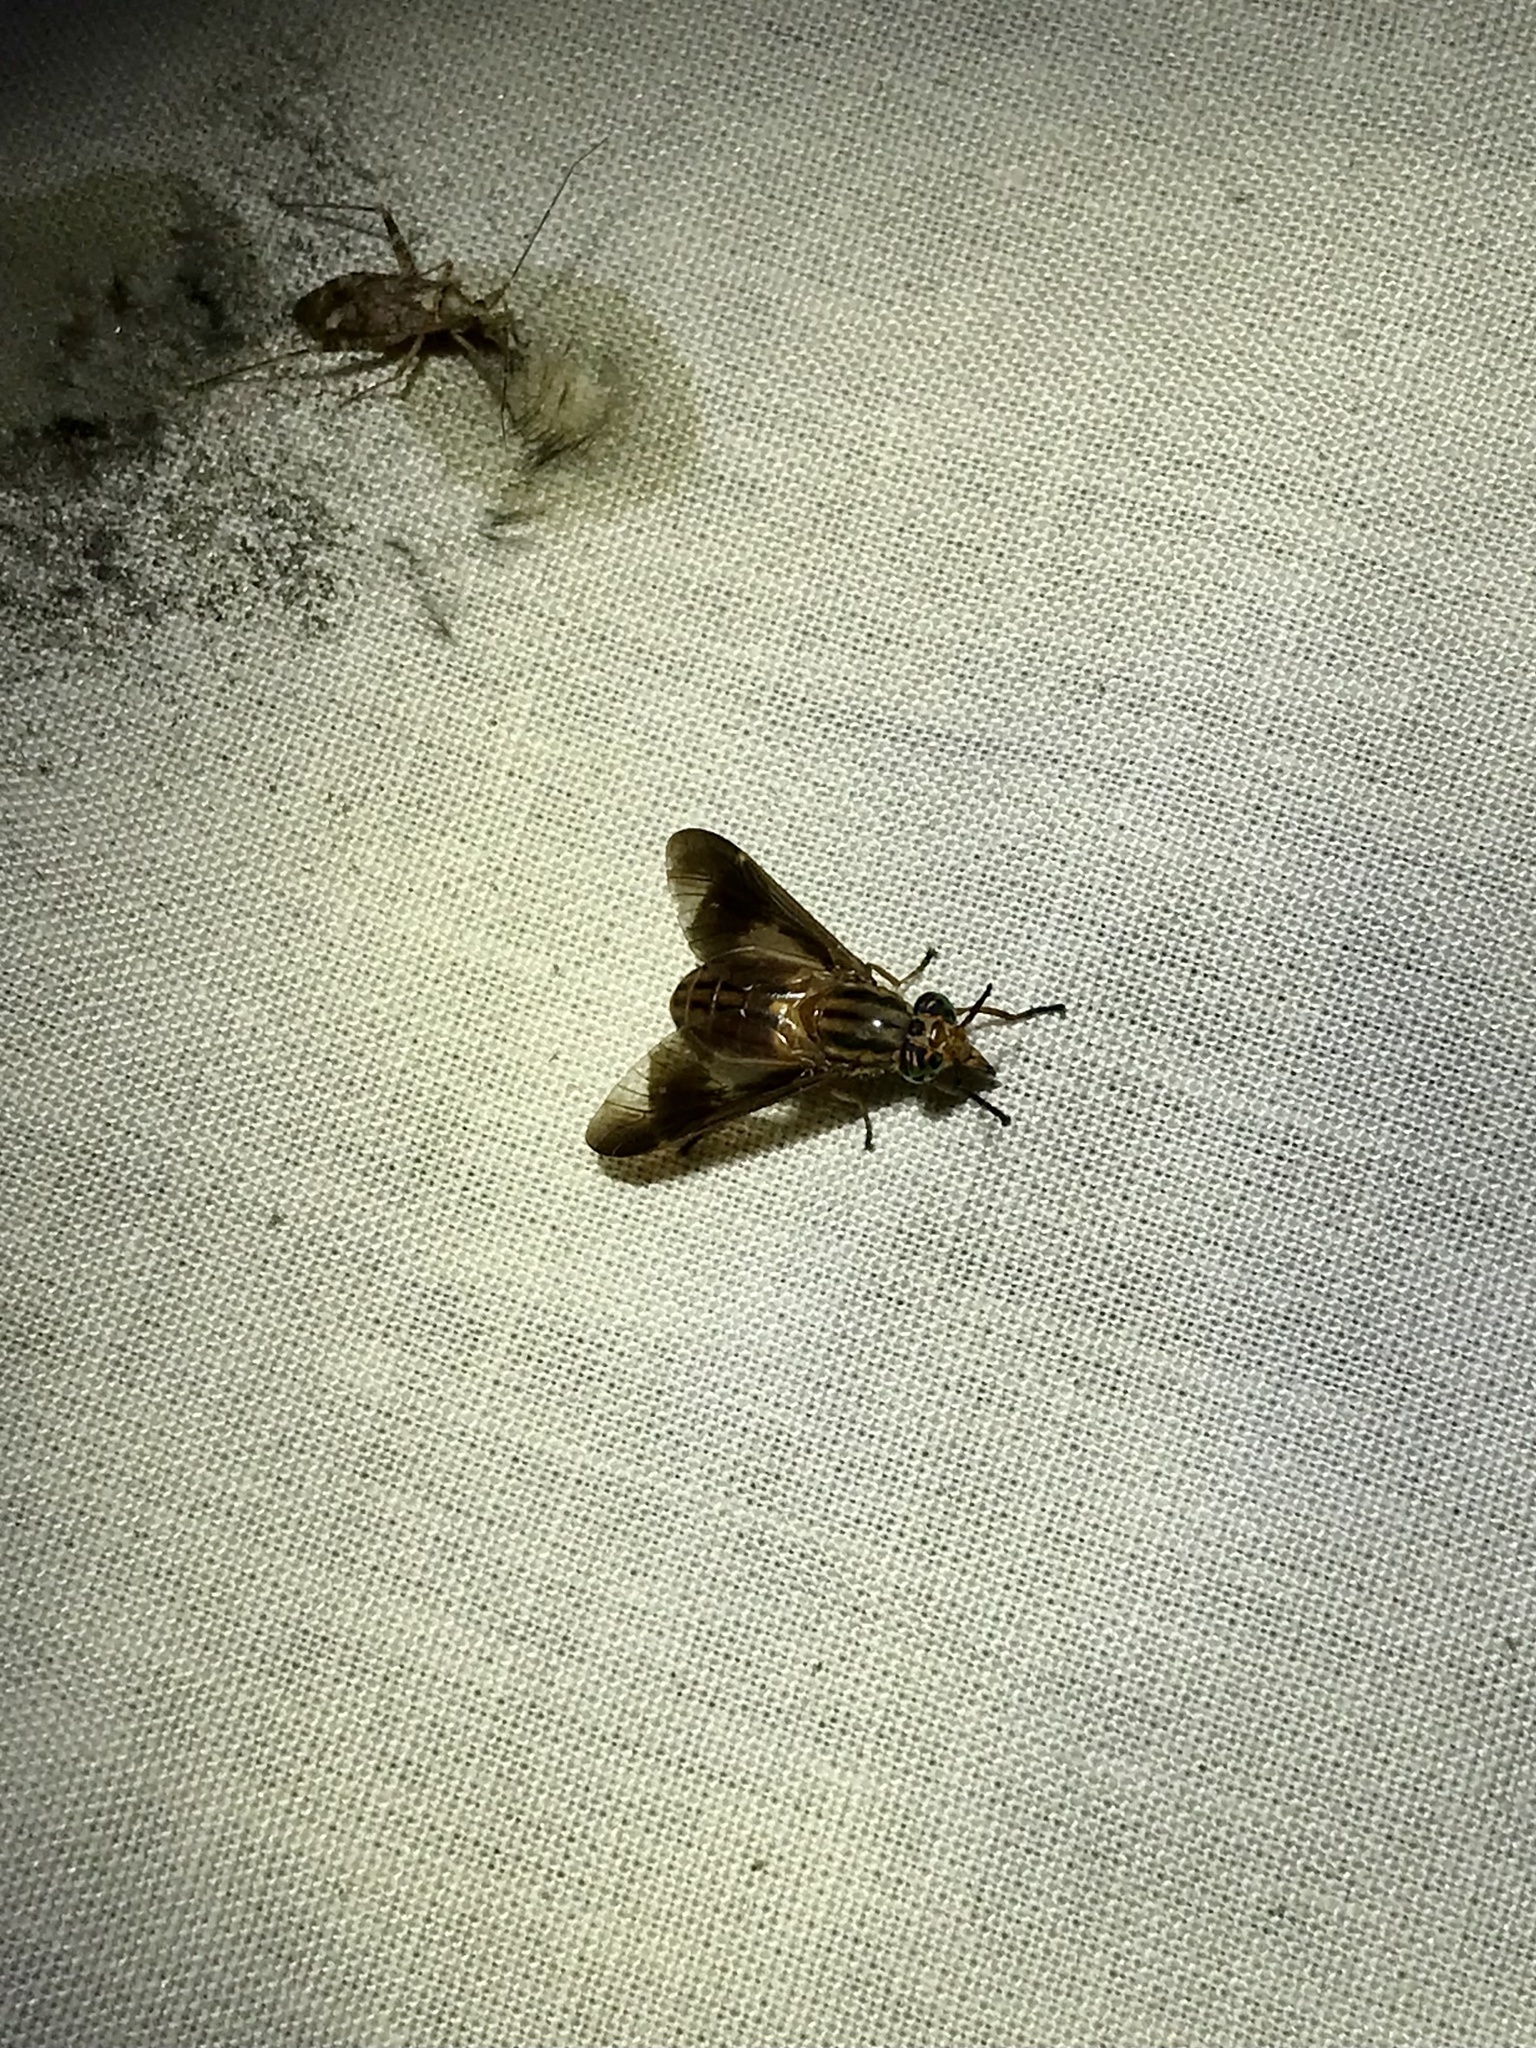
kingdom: Animalia
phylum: Arthropoda
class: Insecta
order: Diptera
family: Tabanidae
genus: Chrysops
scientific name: Chrysops vittatus
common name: Striped deer fly
